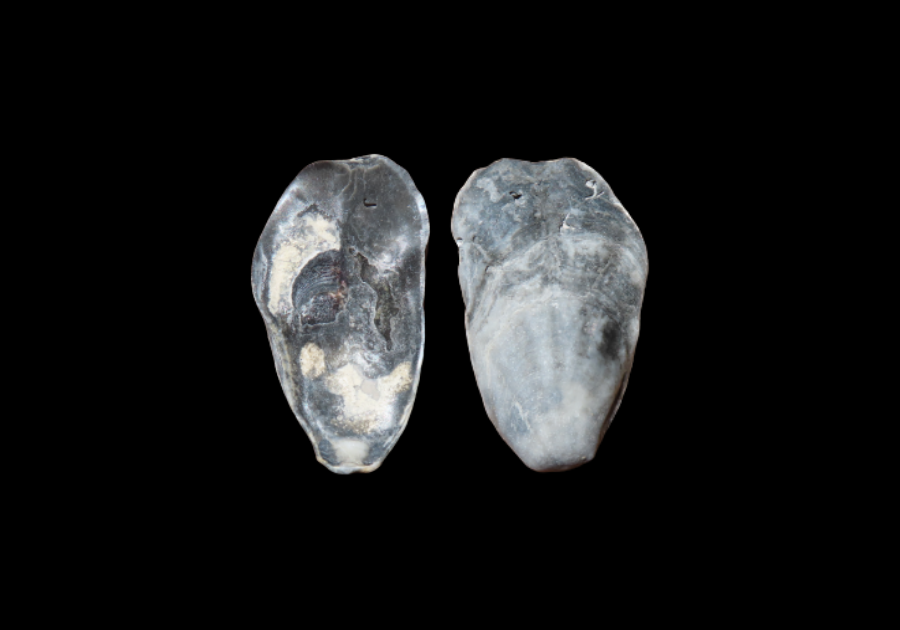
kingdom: Animalia
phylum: Mollusca
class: Bivalvia
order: Ostreida
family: Ostreidae
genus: Crassostrea
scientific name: Crassostrea virginica
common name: American oyster
